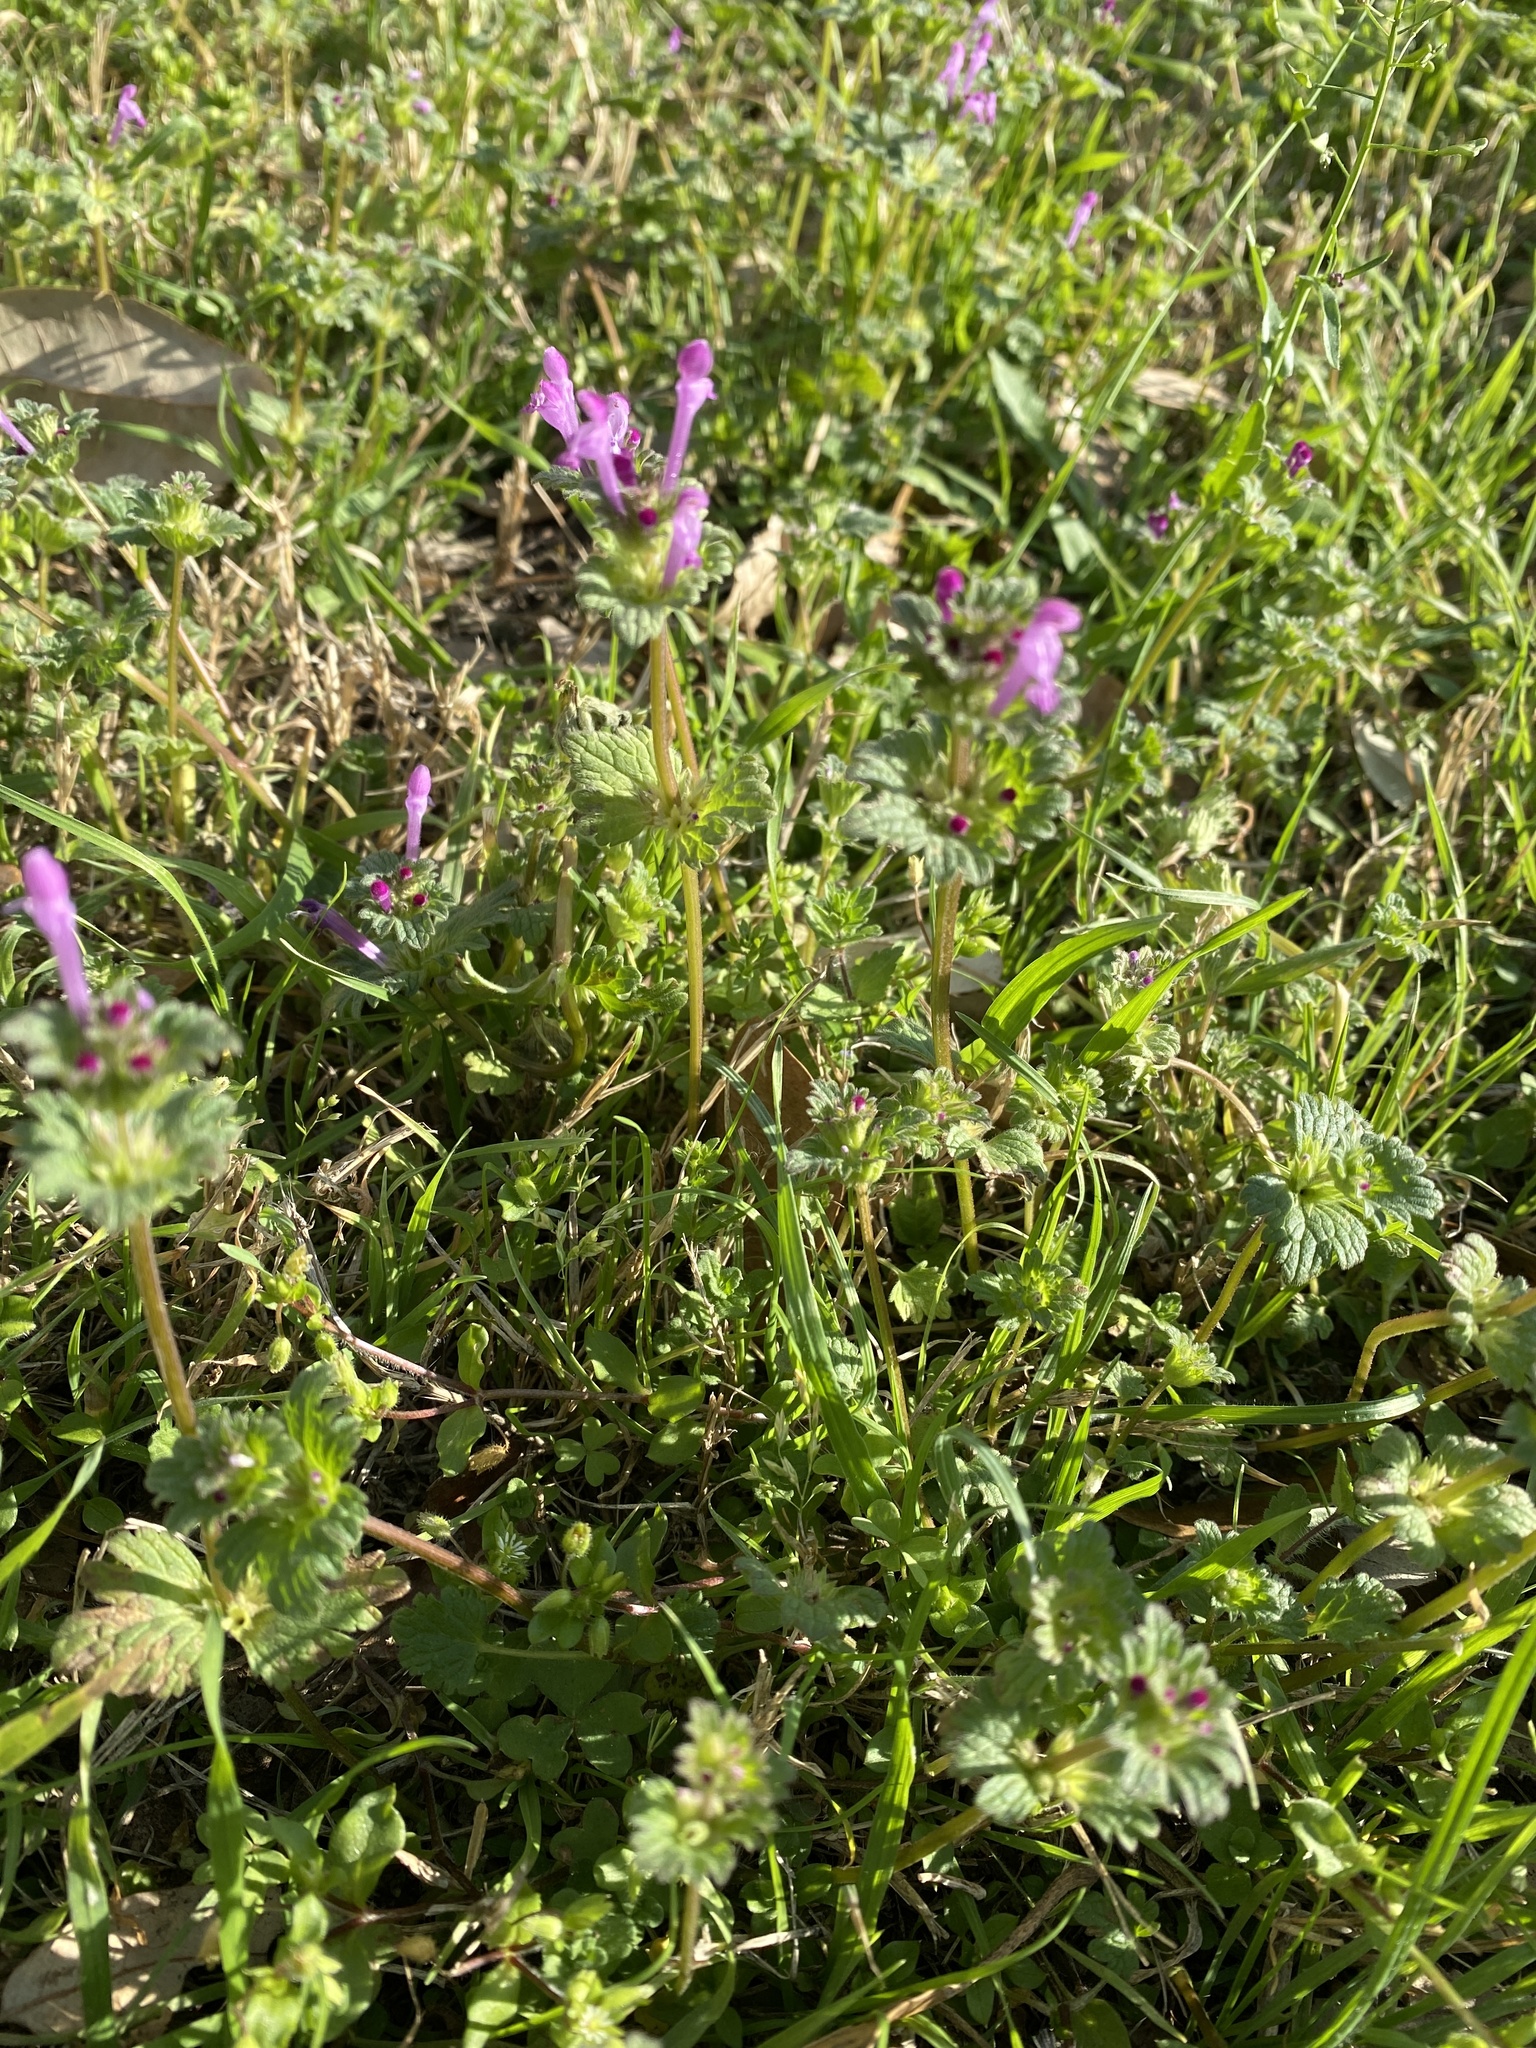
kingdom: Plantae
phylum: Tracheophyta
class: Magnoliopsida
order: Lamiales
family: Lamiaceae
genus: Lamium
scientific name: Lamium amplexicaule
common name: Henbit dead-nettle
